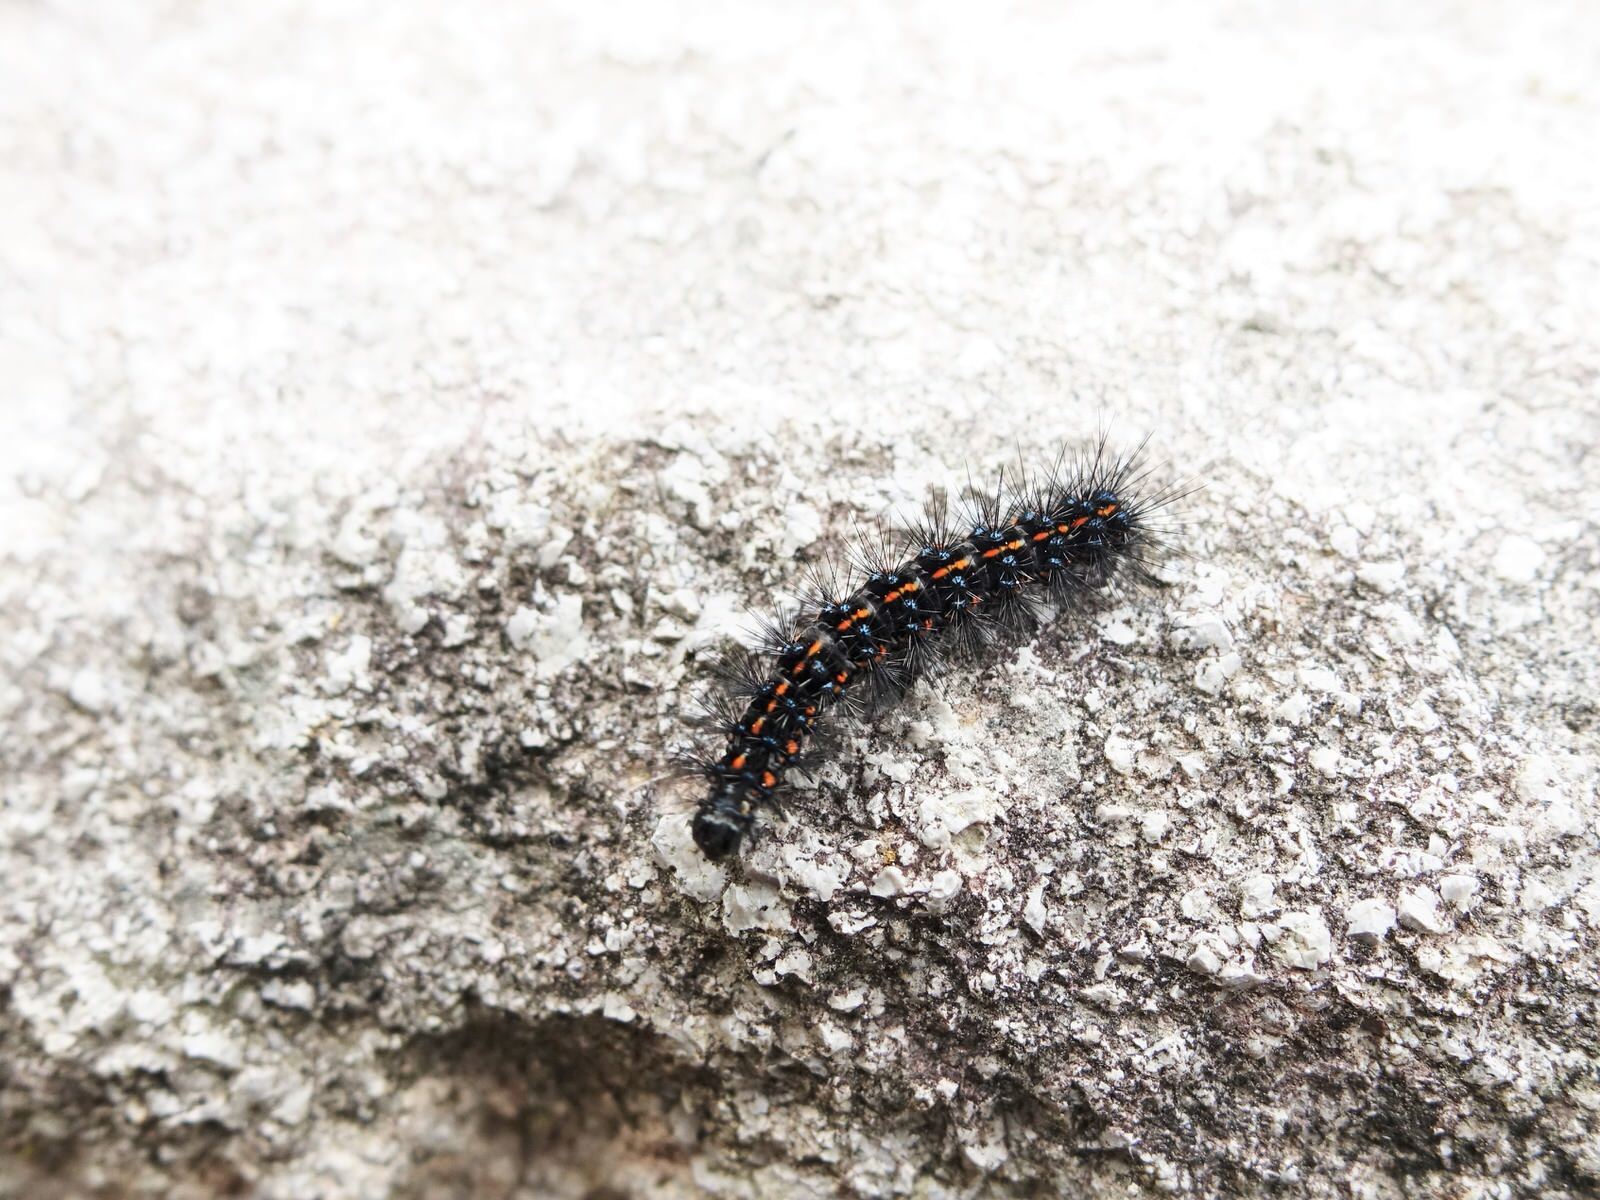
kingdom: Animalia
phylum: Arthropoda
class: Insecta
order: Lepidoptera
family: Erebidae
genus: Nyctemera
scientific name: Nyctemera annulatum
